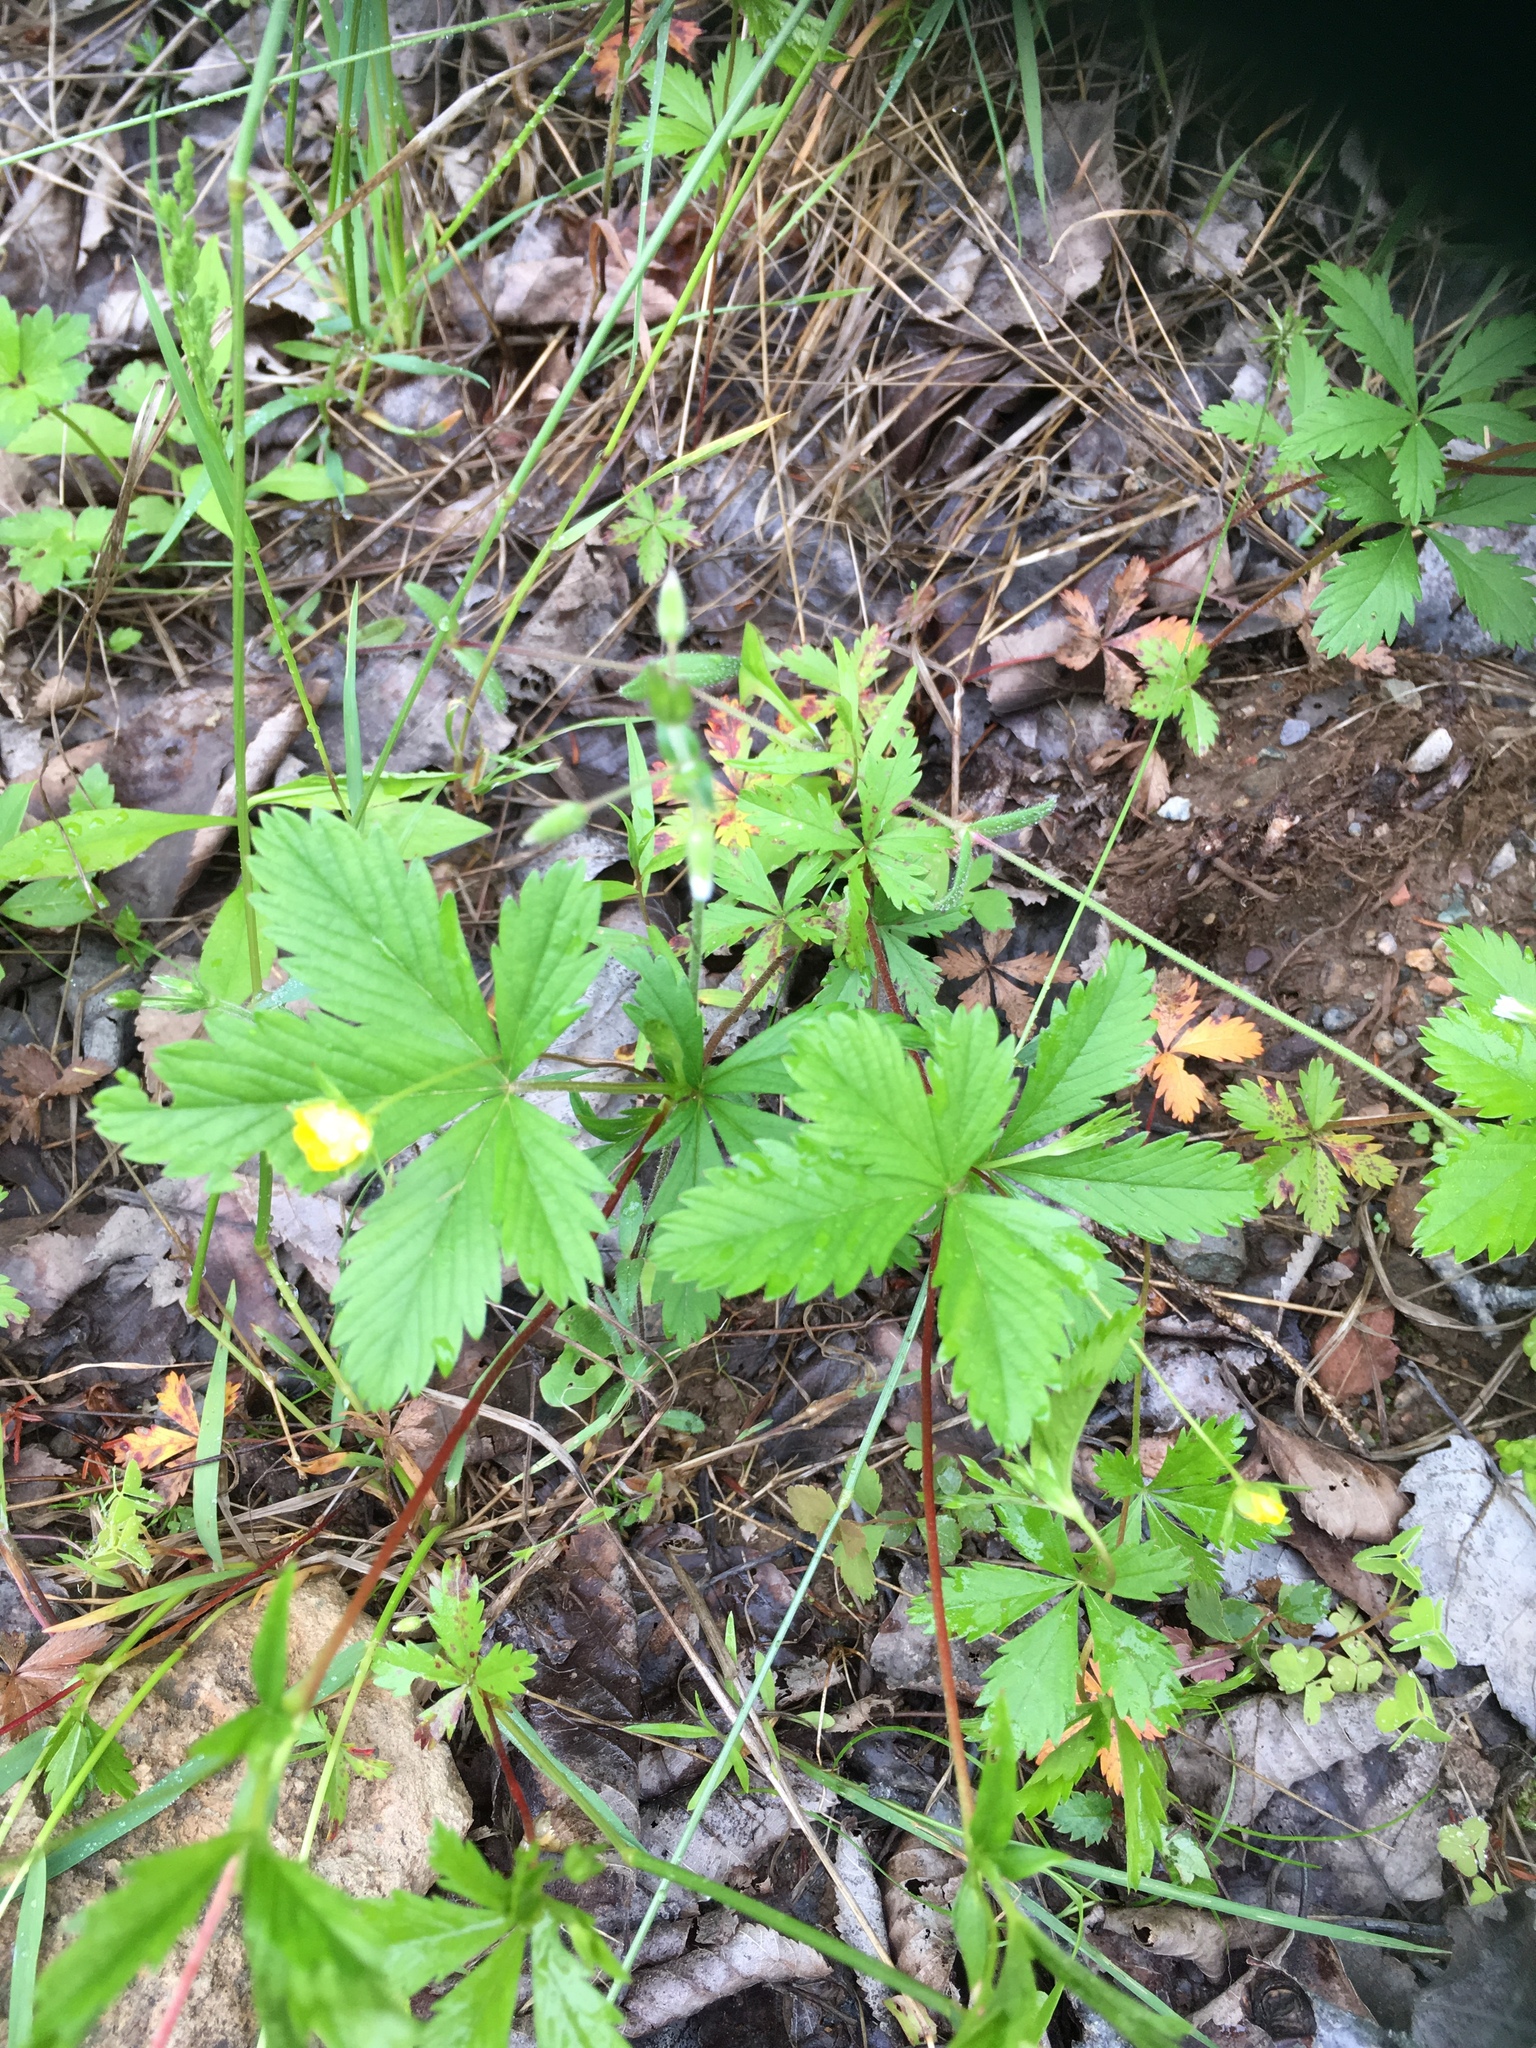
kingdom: Plantae
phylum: Tracheophyta
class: Magnoliopsida
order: Rosales
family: Rosaceae
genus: Potentilla
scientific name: Potentilla simplex
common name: Old field cinquefoil
